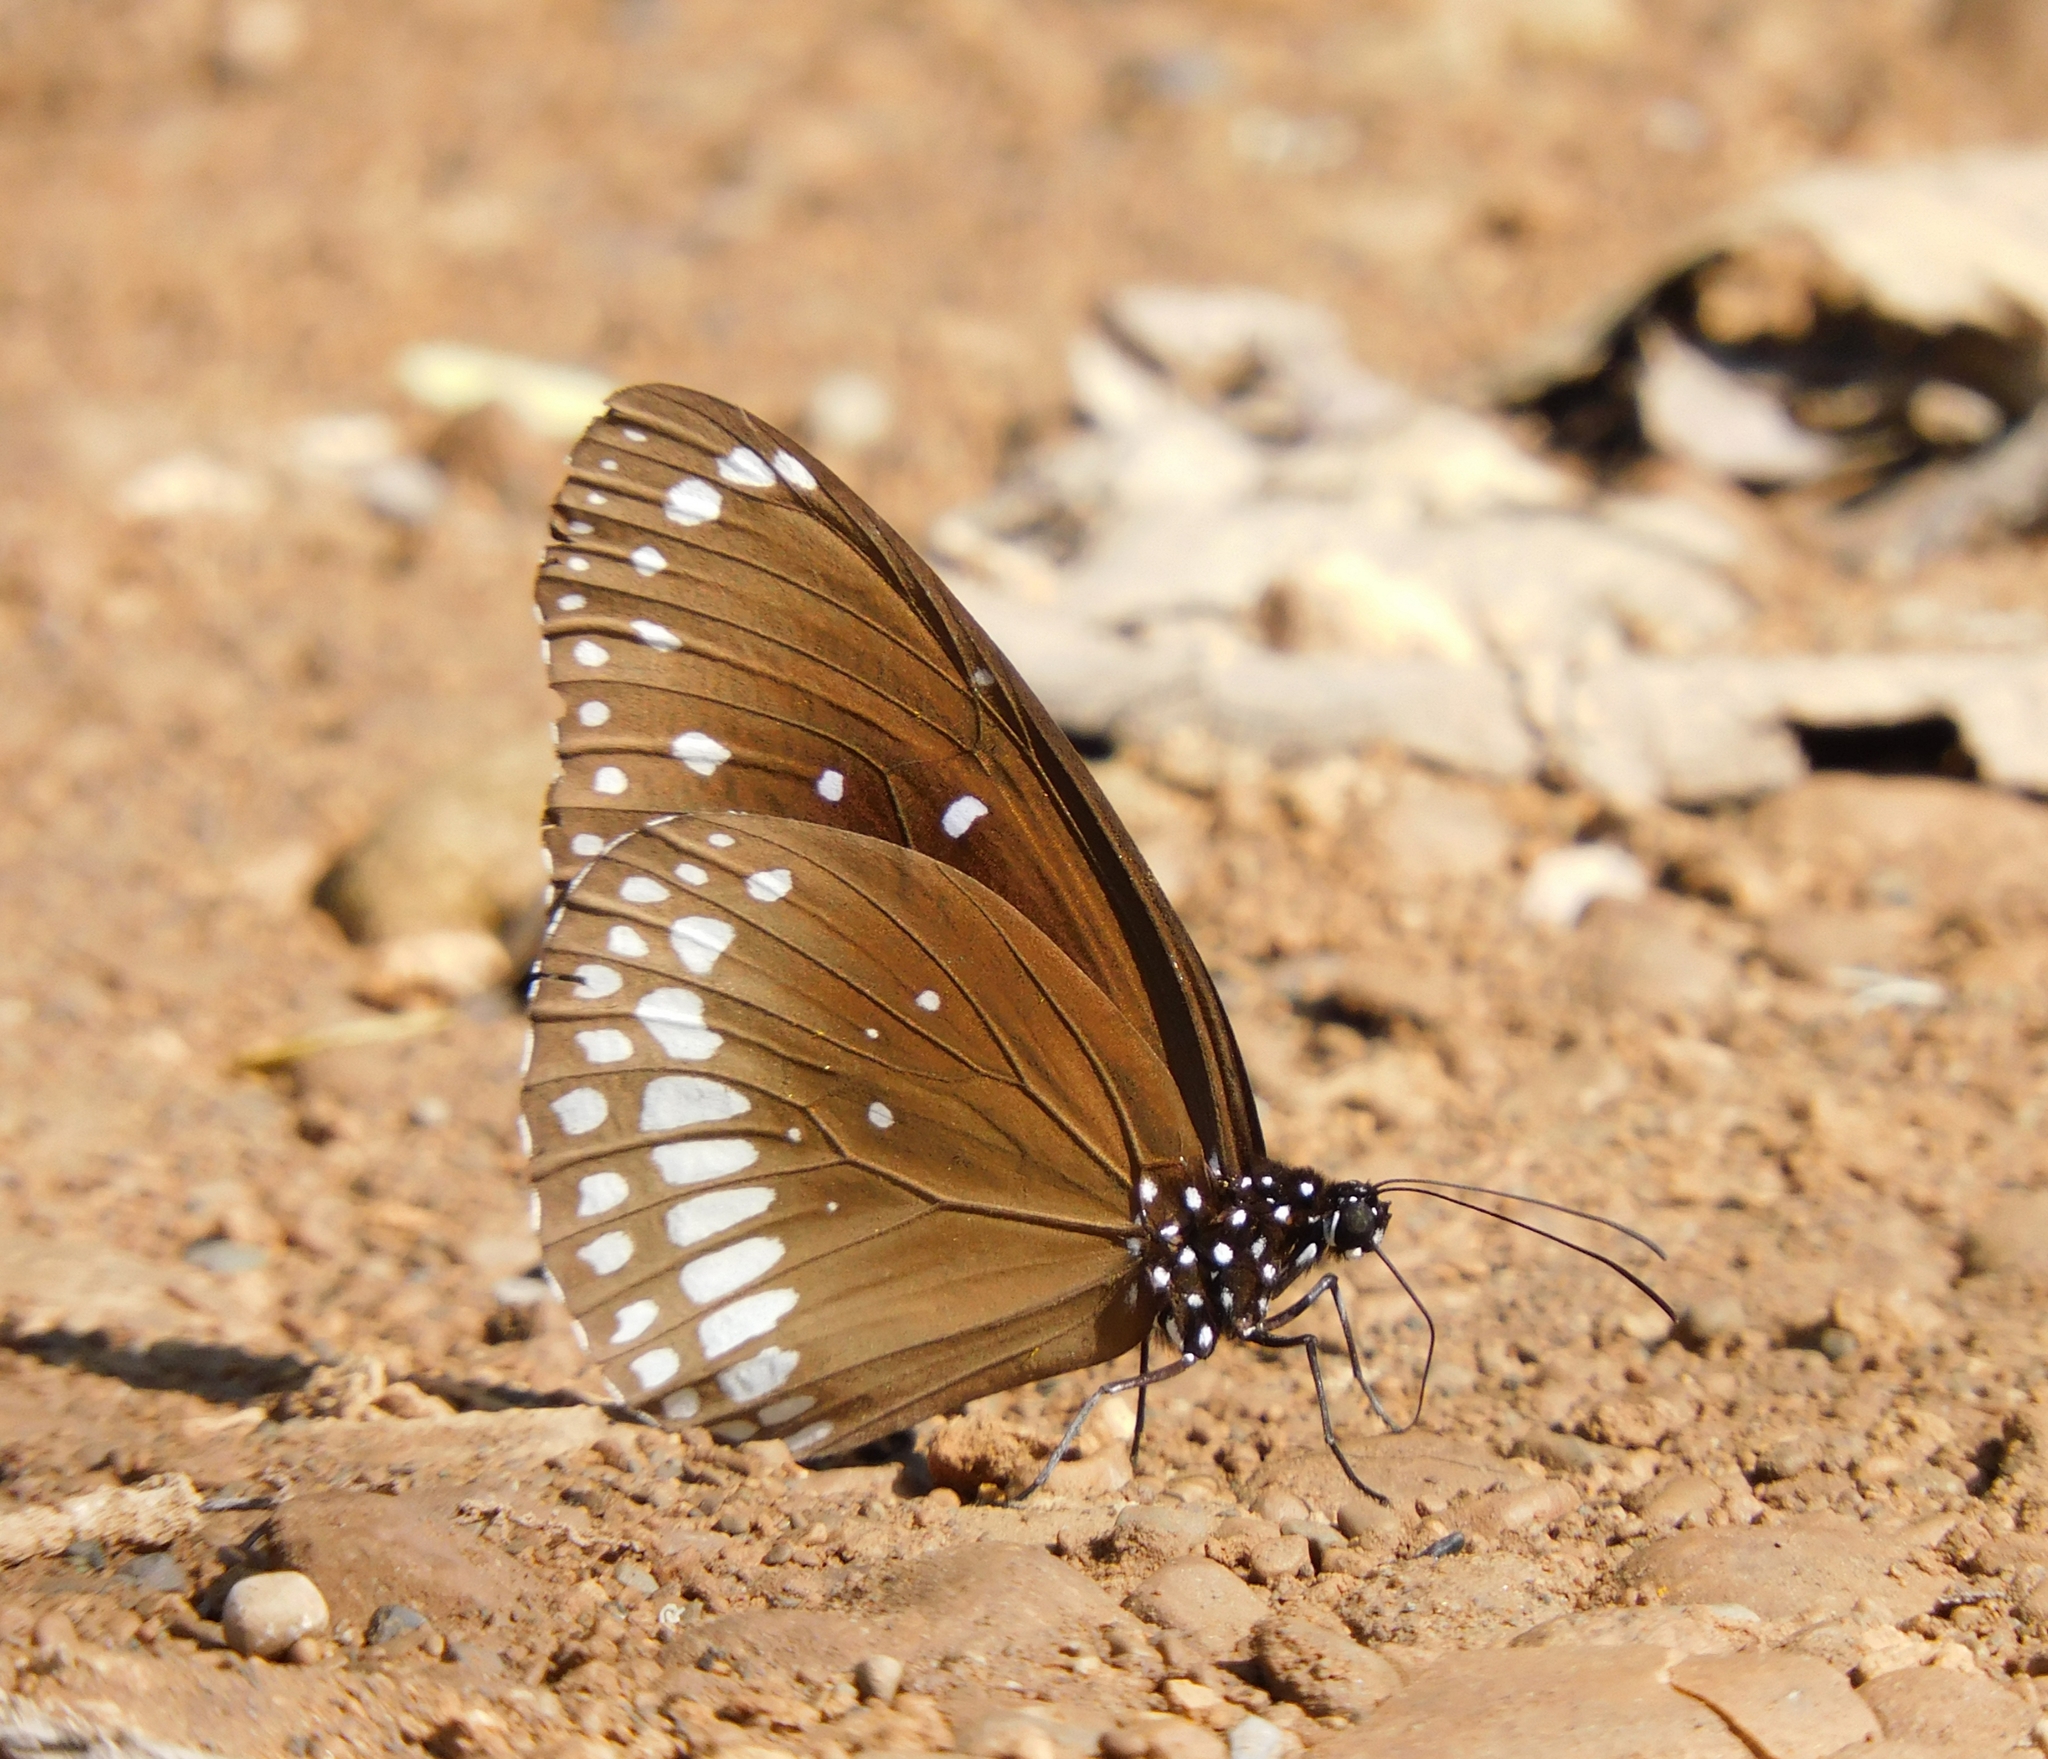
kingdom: Animalia
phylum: Arthropoda
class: Insecta
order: Lepidoptera
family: Nymphalidae
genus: Euploea
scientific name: Euploea core
